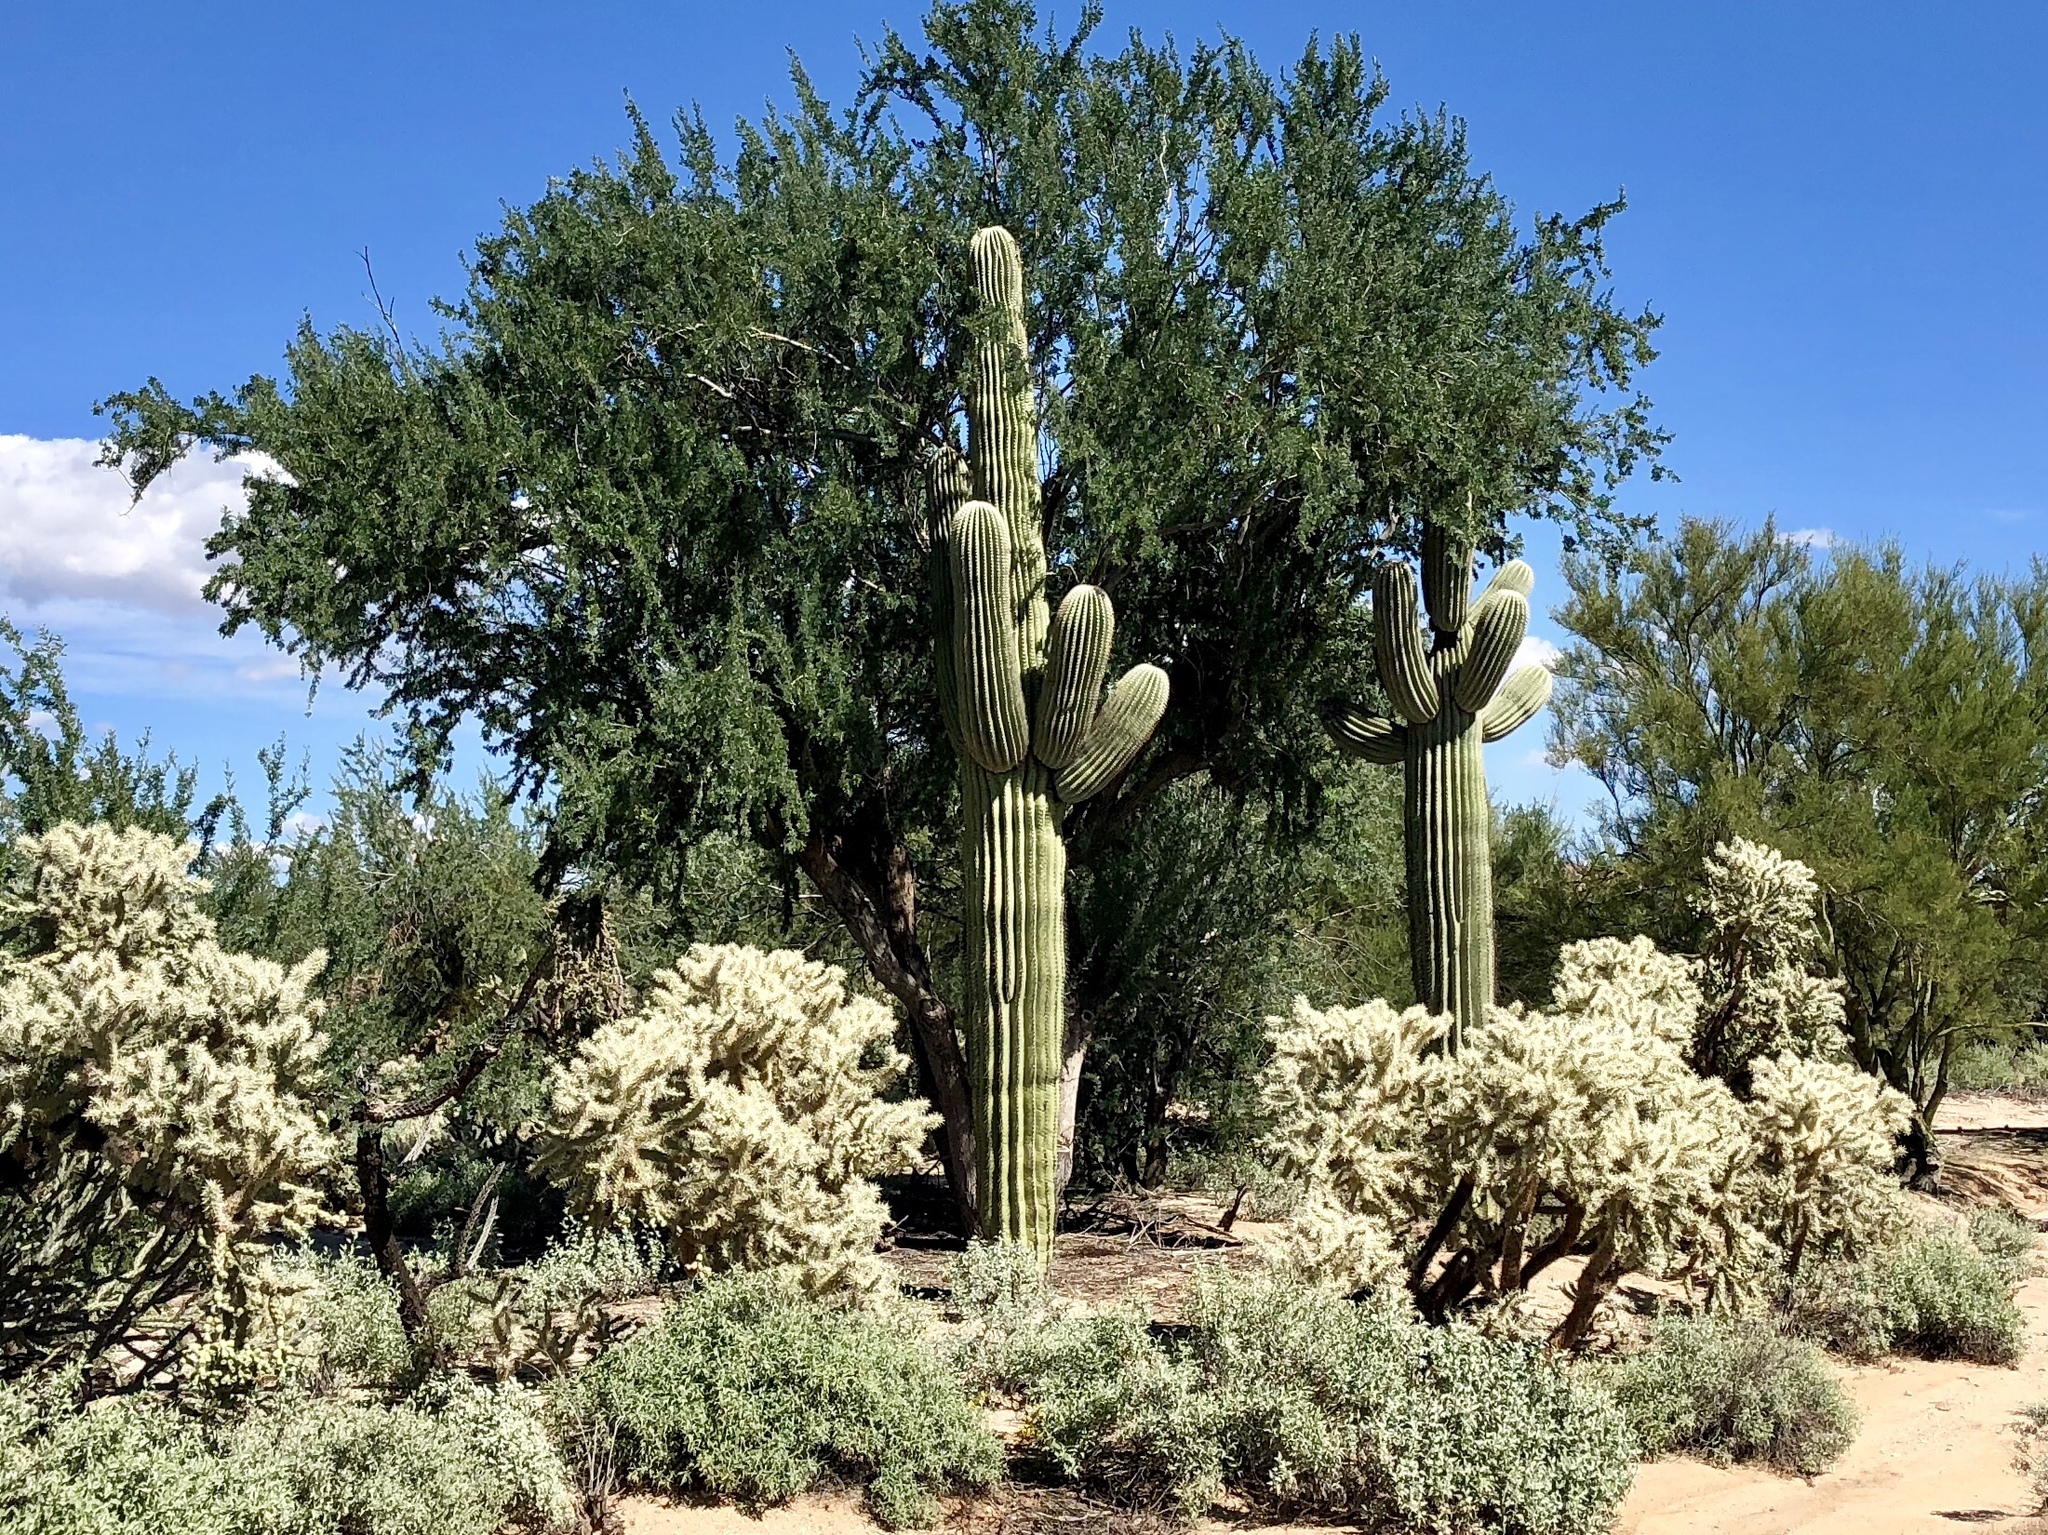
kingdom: Plantae
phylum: Tracheophyta
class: Magnoliopsida
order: Caryophyllales
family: Cactaceae
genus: Carnegiea
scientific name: Carnegiea gigantea
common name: Saguaro
